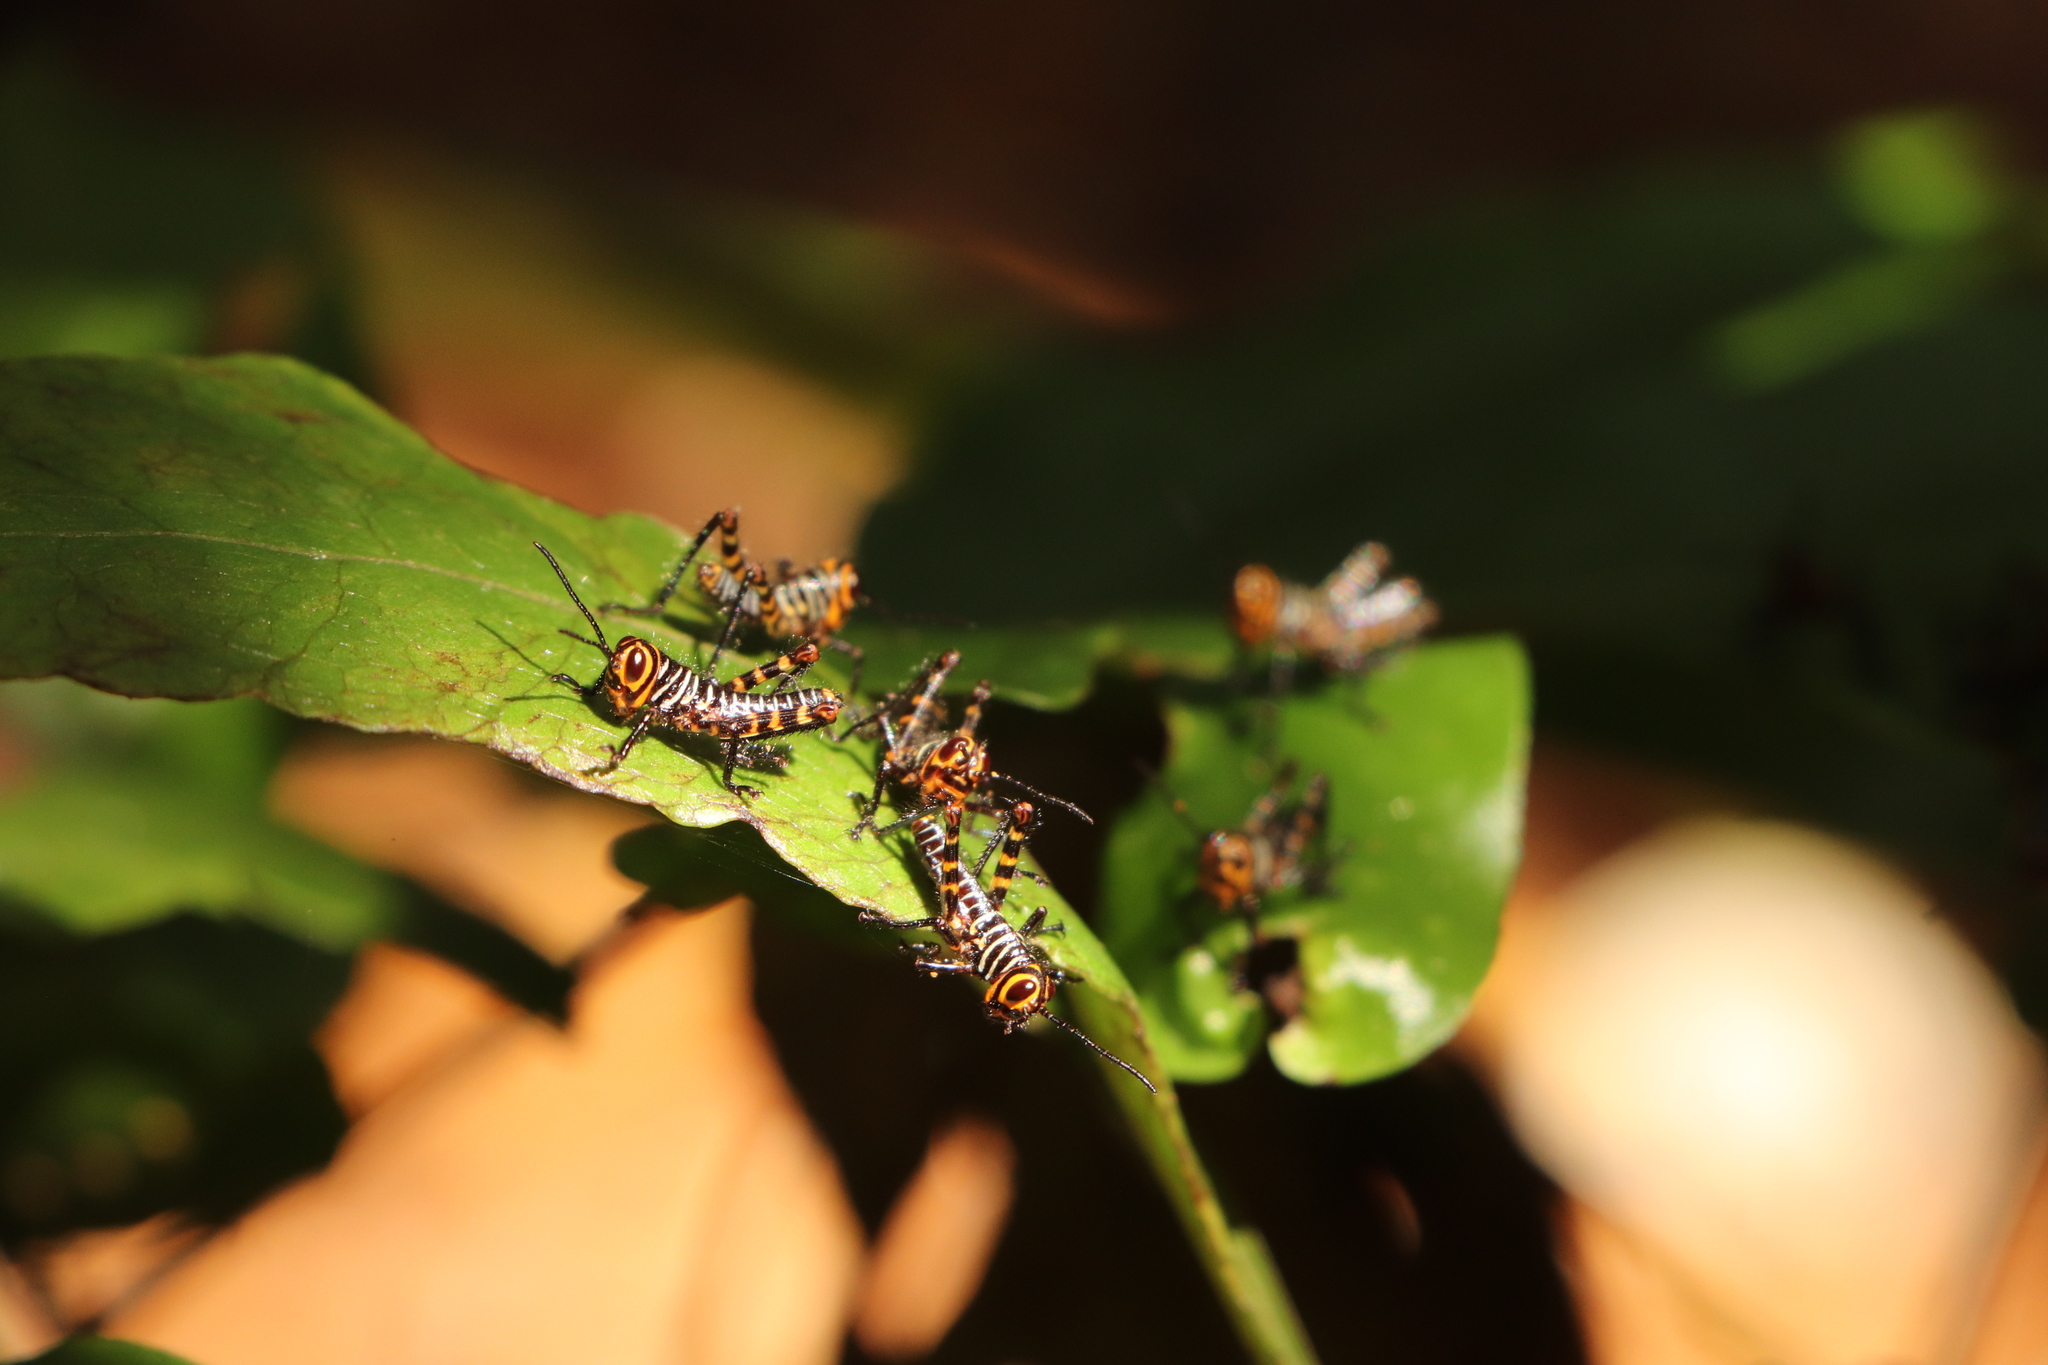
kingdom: Animalia
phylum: Arthropoda
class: Insecta
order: Orthoptera
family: Romaleidae
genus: Tropidacris
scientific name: Tropidacris cristata
